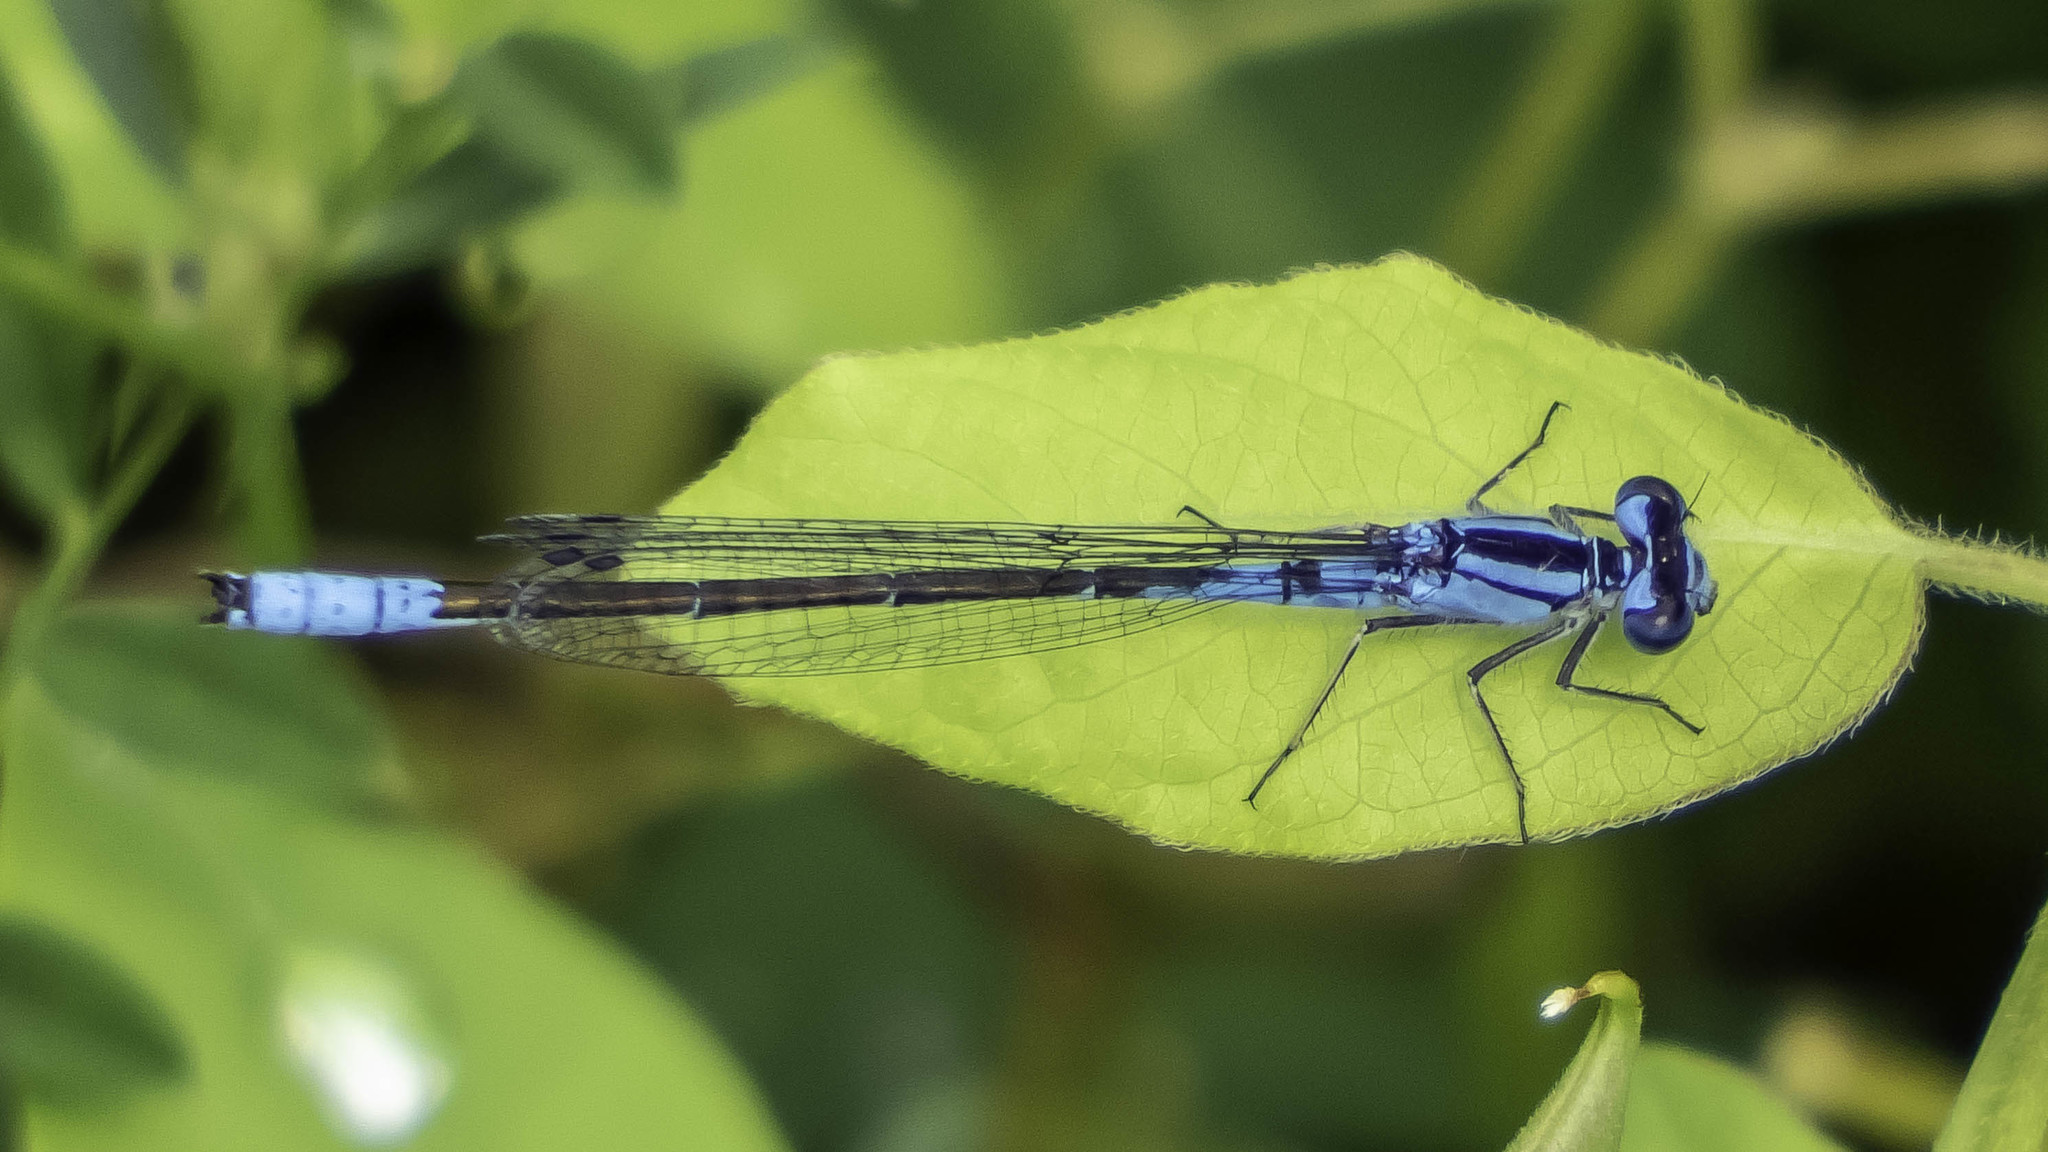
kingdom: Animalia
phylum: Arthropoda
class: Insecta
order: Odonata
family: Coenagrionidae
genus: Enallagma
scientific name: Enallagma aspersum
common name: Azure bluet
